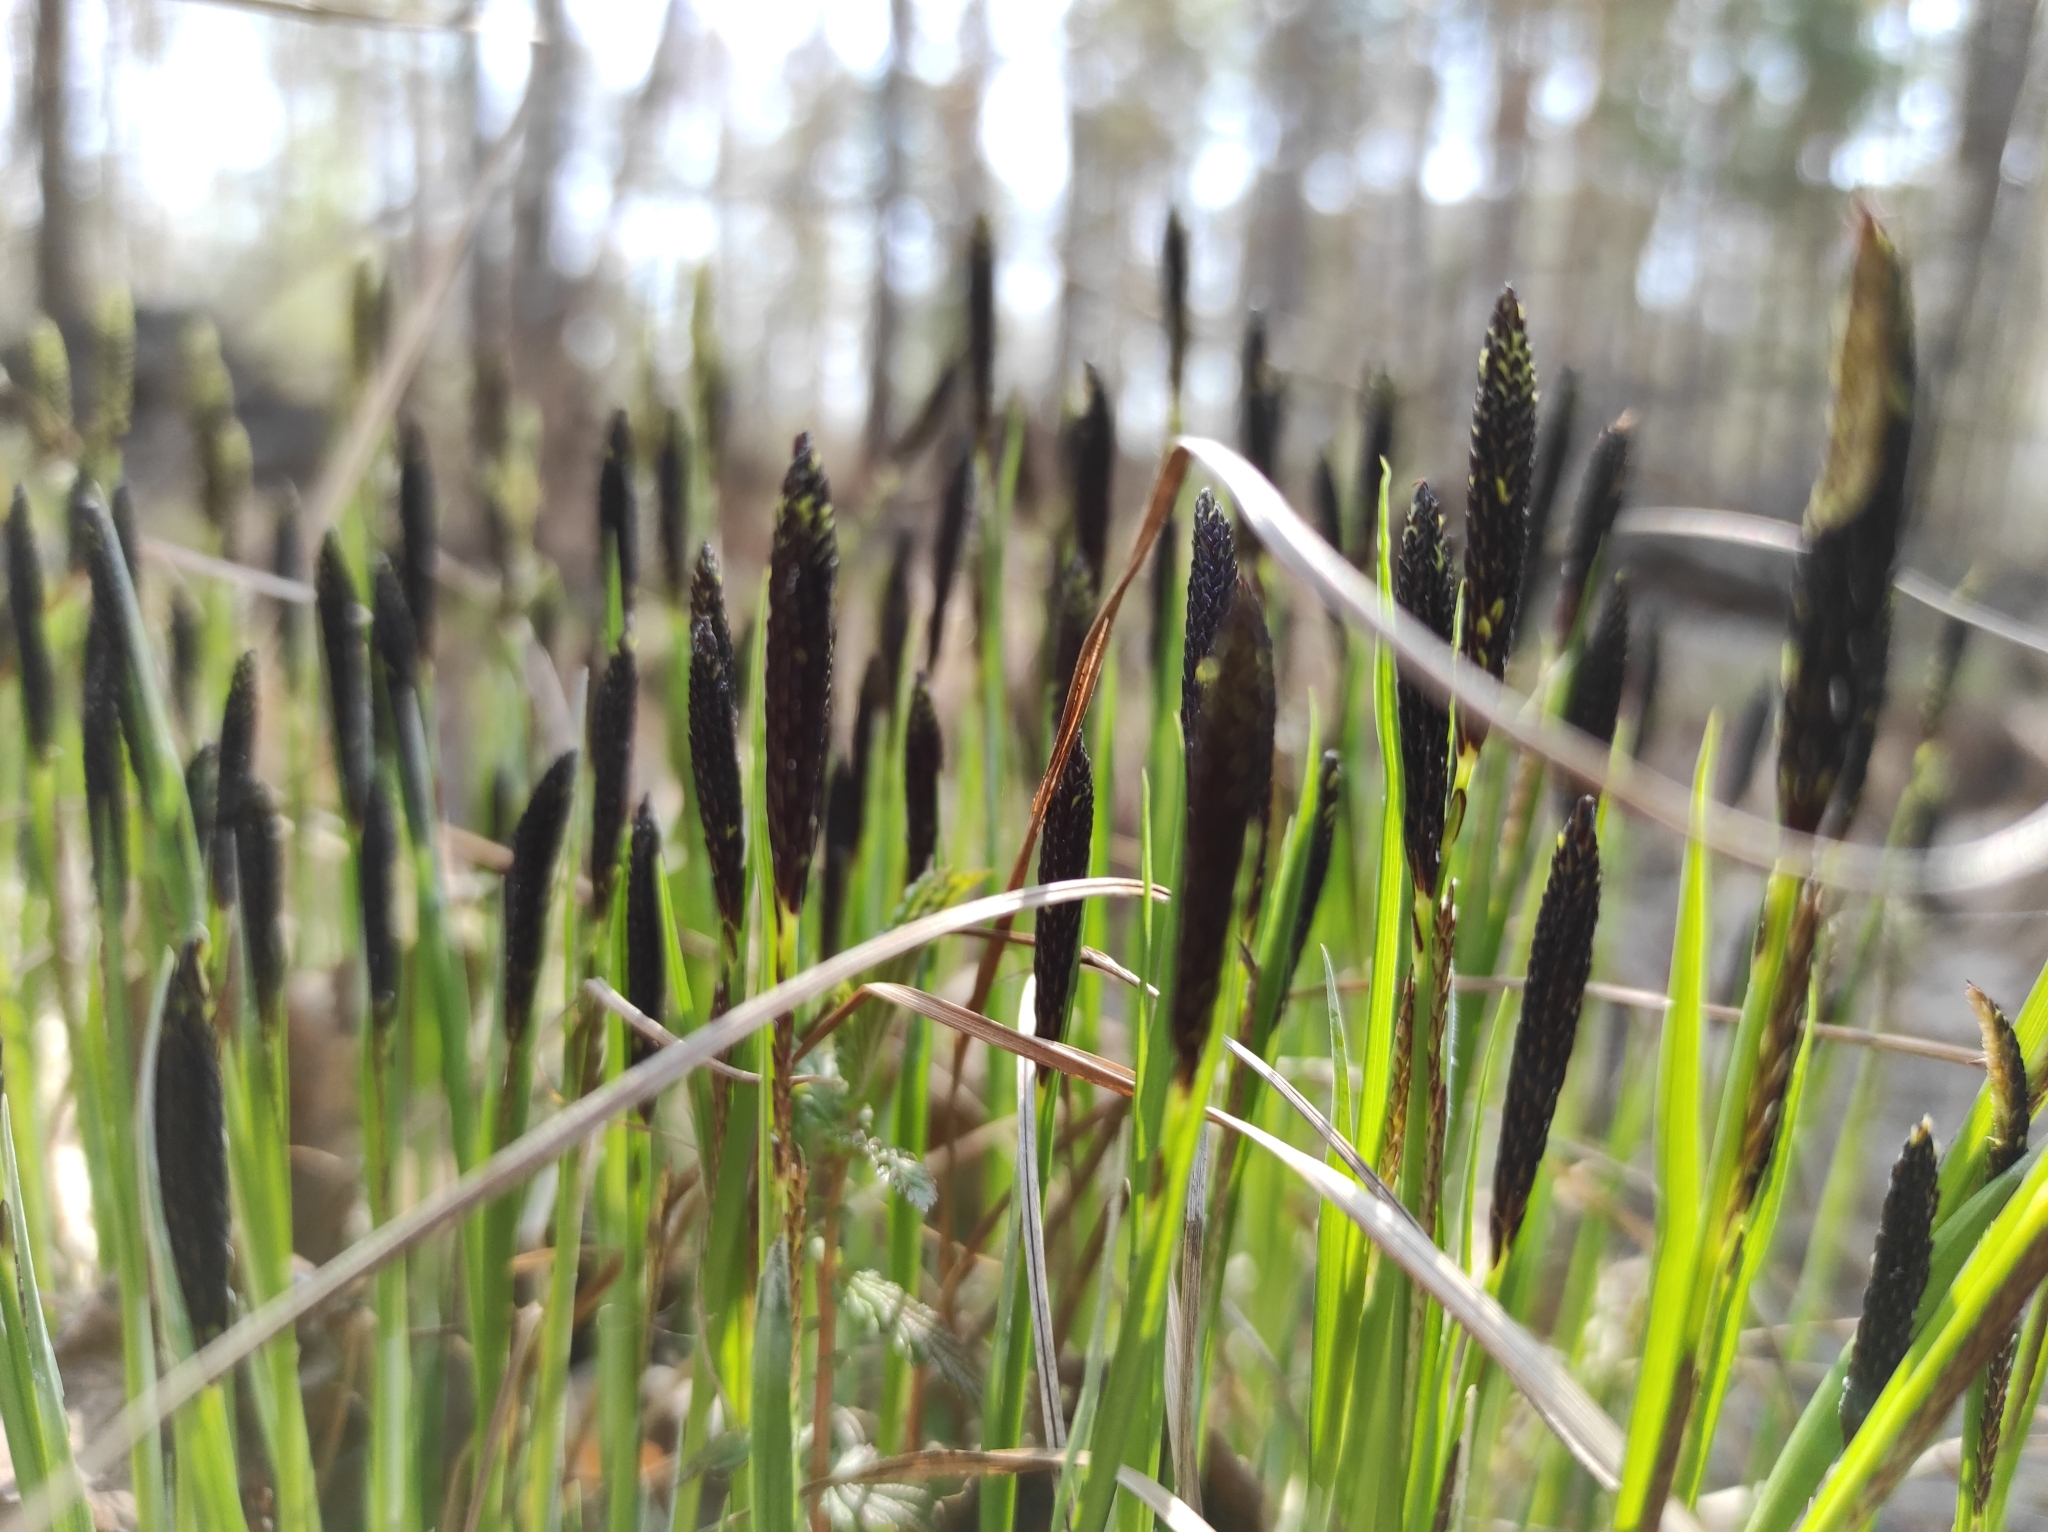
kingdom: Plantae
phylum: Tracheophyta
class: Liliopsida
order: Poales
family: Cyperaceae
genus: Carex
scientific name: Carex cespitosa
